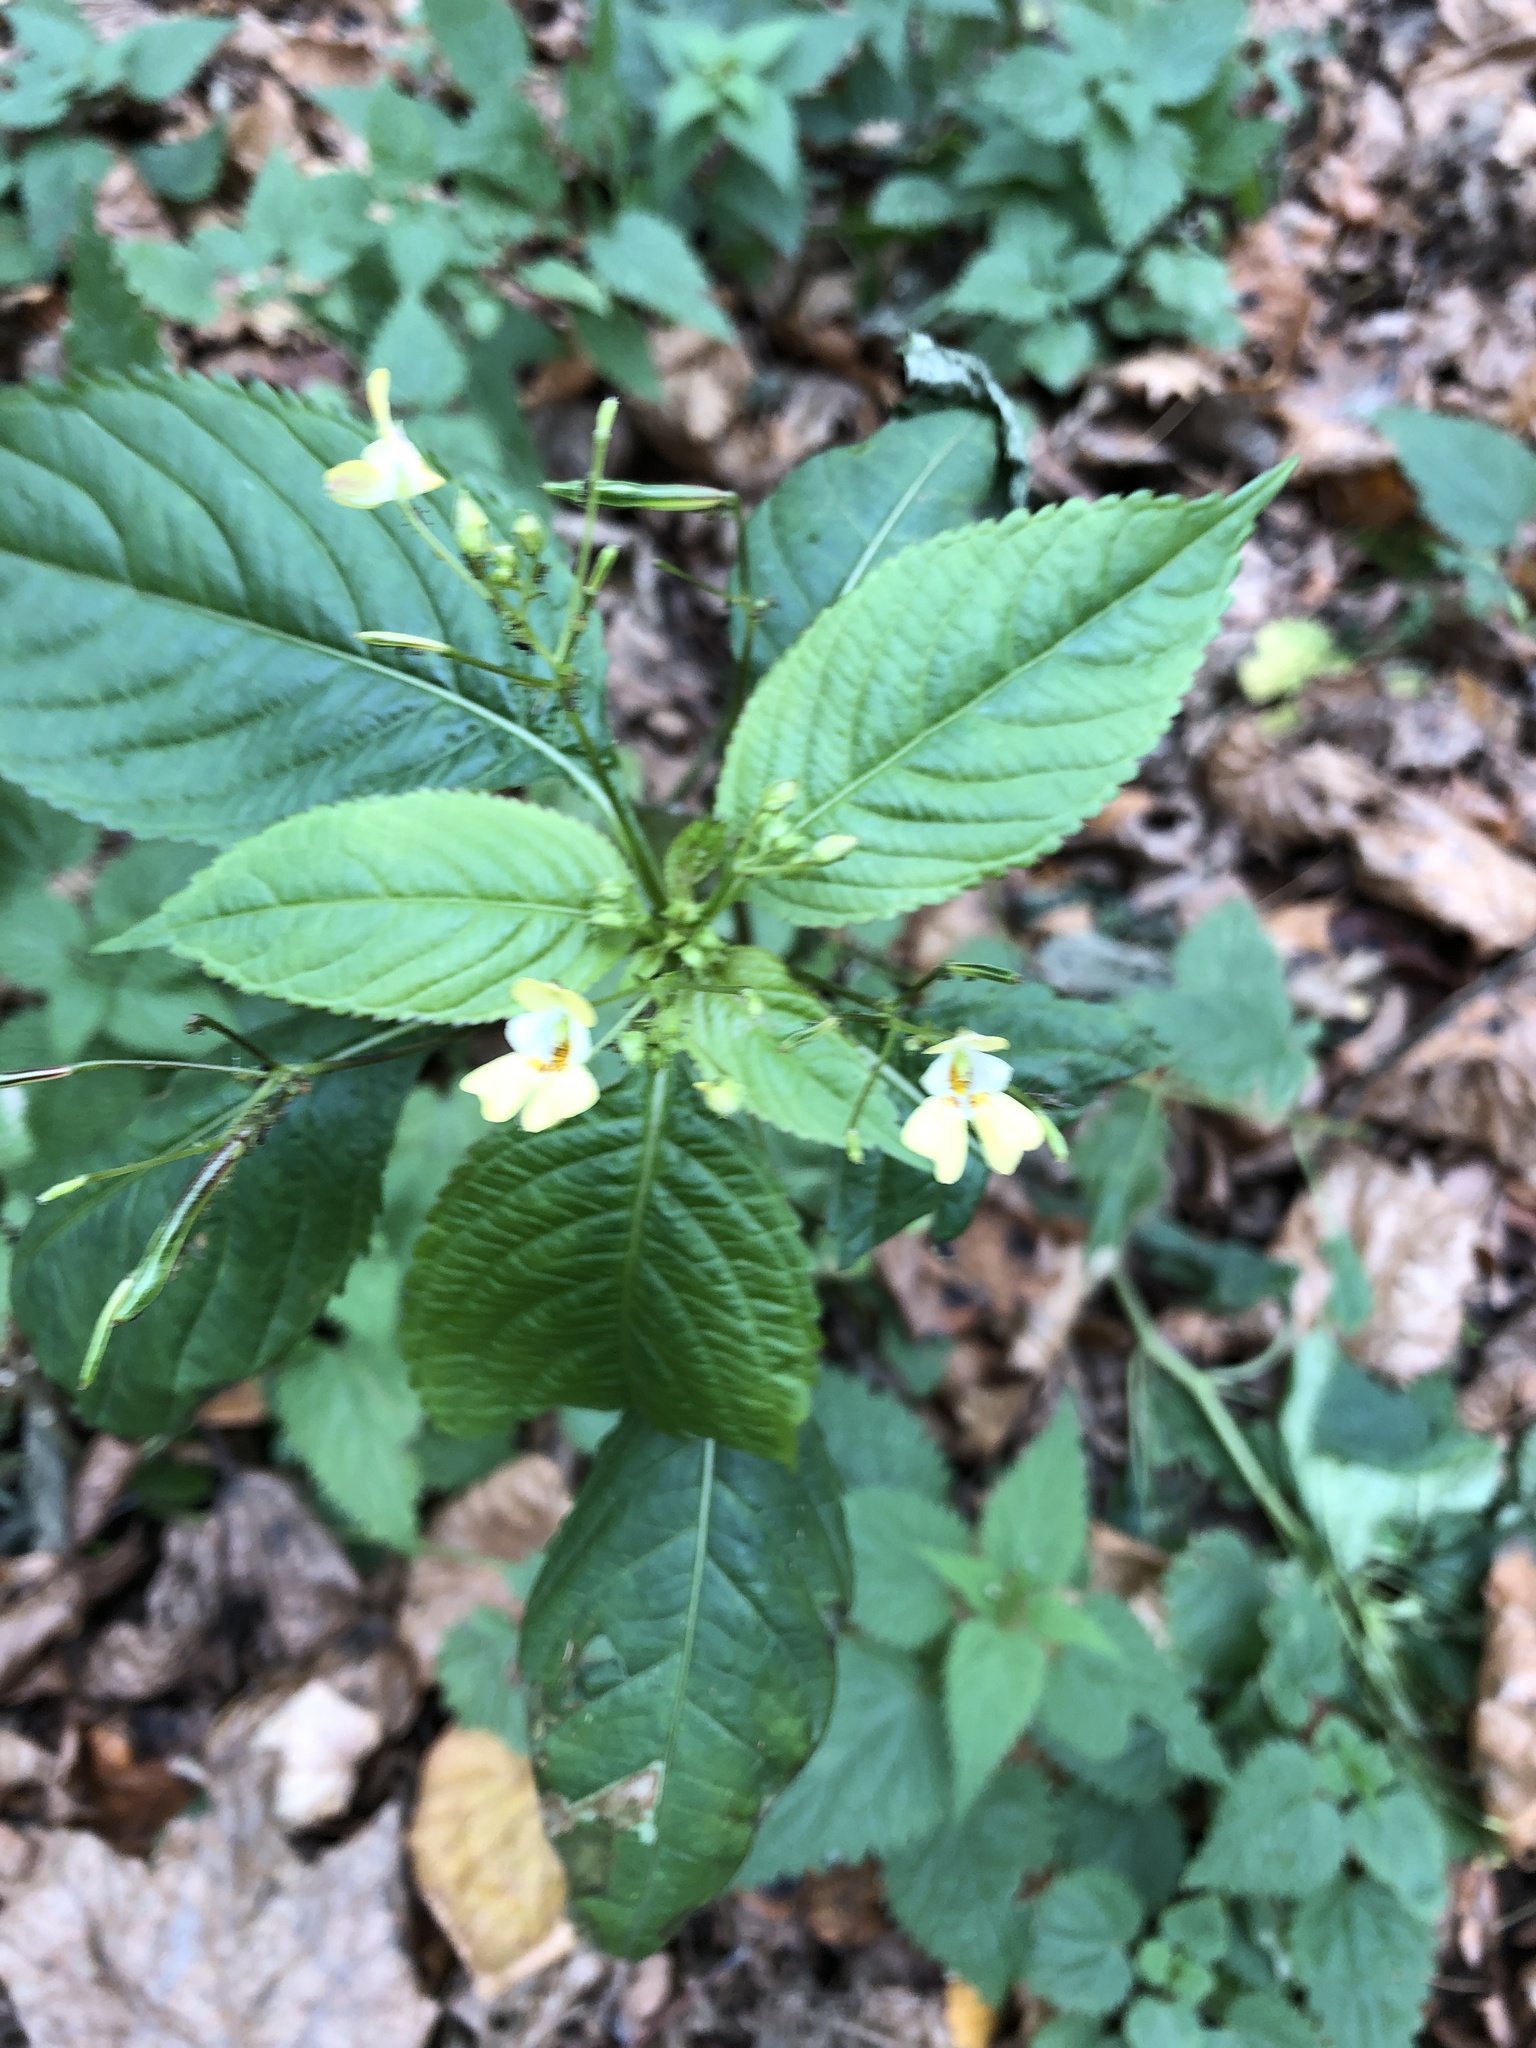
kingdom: Plantae
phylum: Tracheophyta
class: Magnoliopsida
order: Ericales
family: Balsaminaceae
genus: Impatiens
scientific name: Impatiens parviflora
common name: Small balsam
